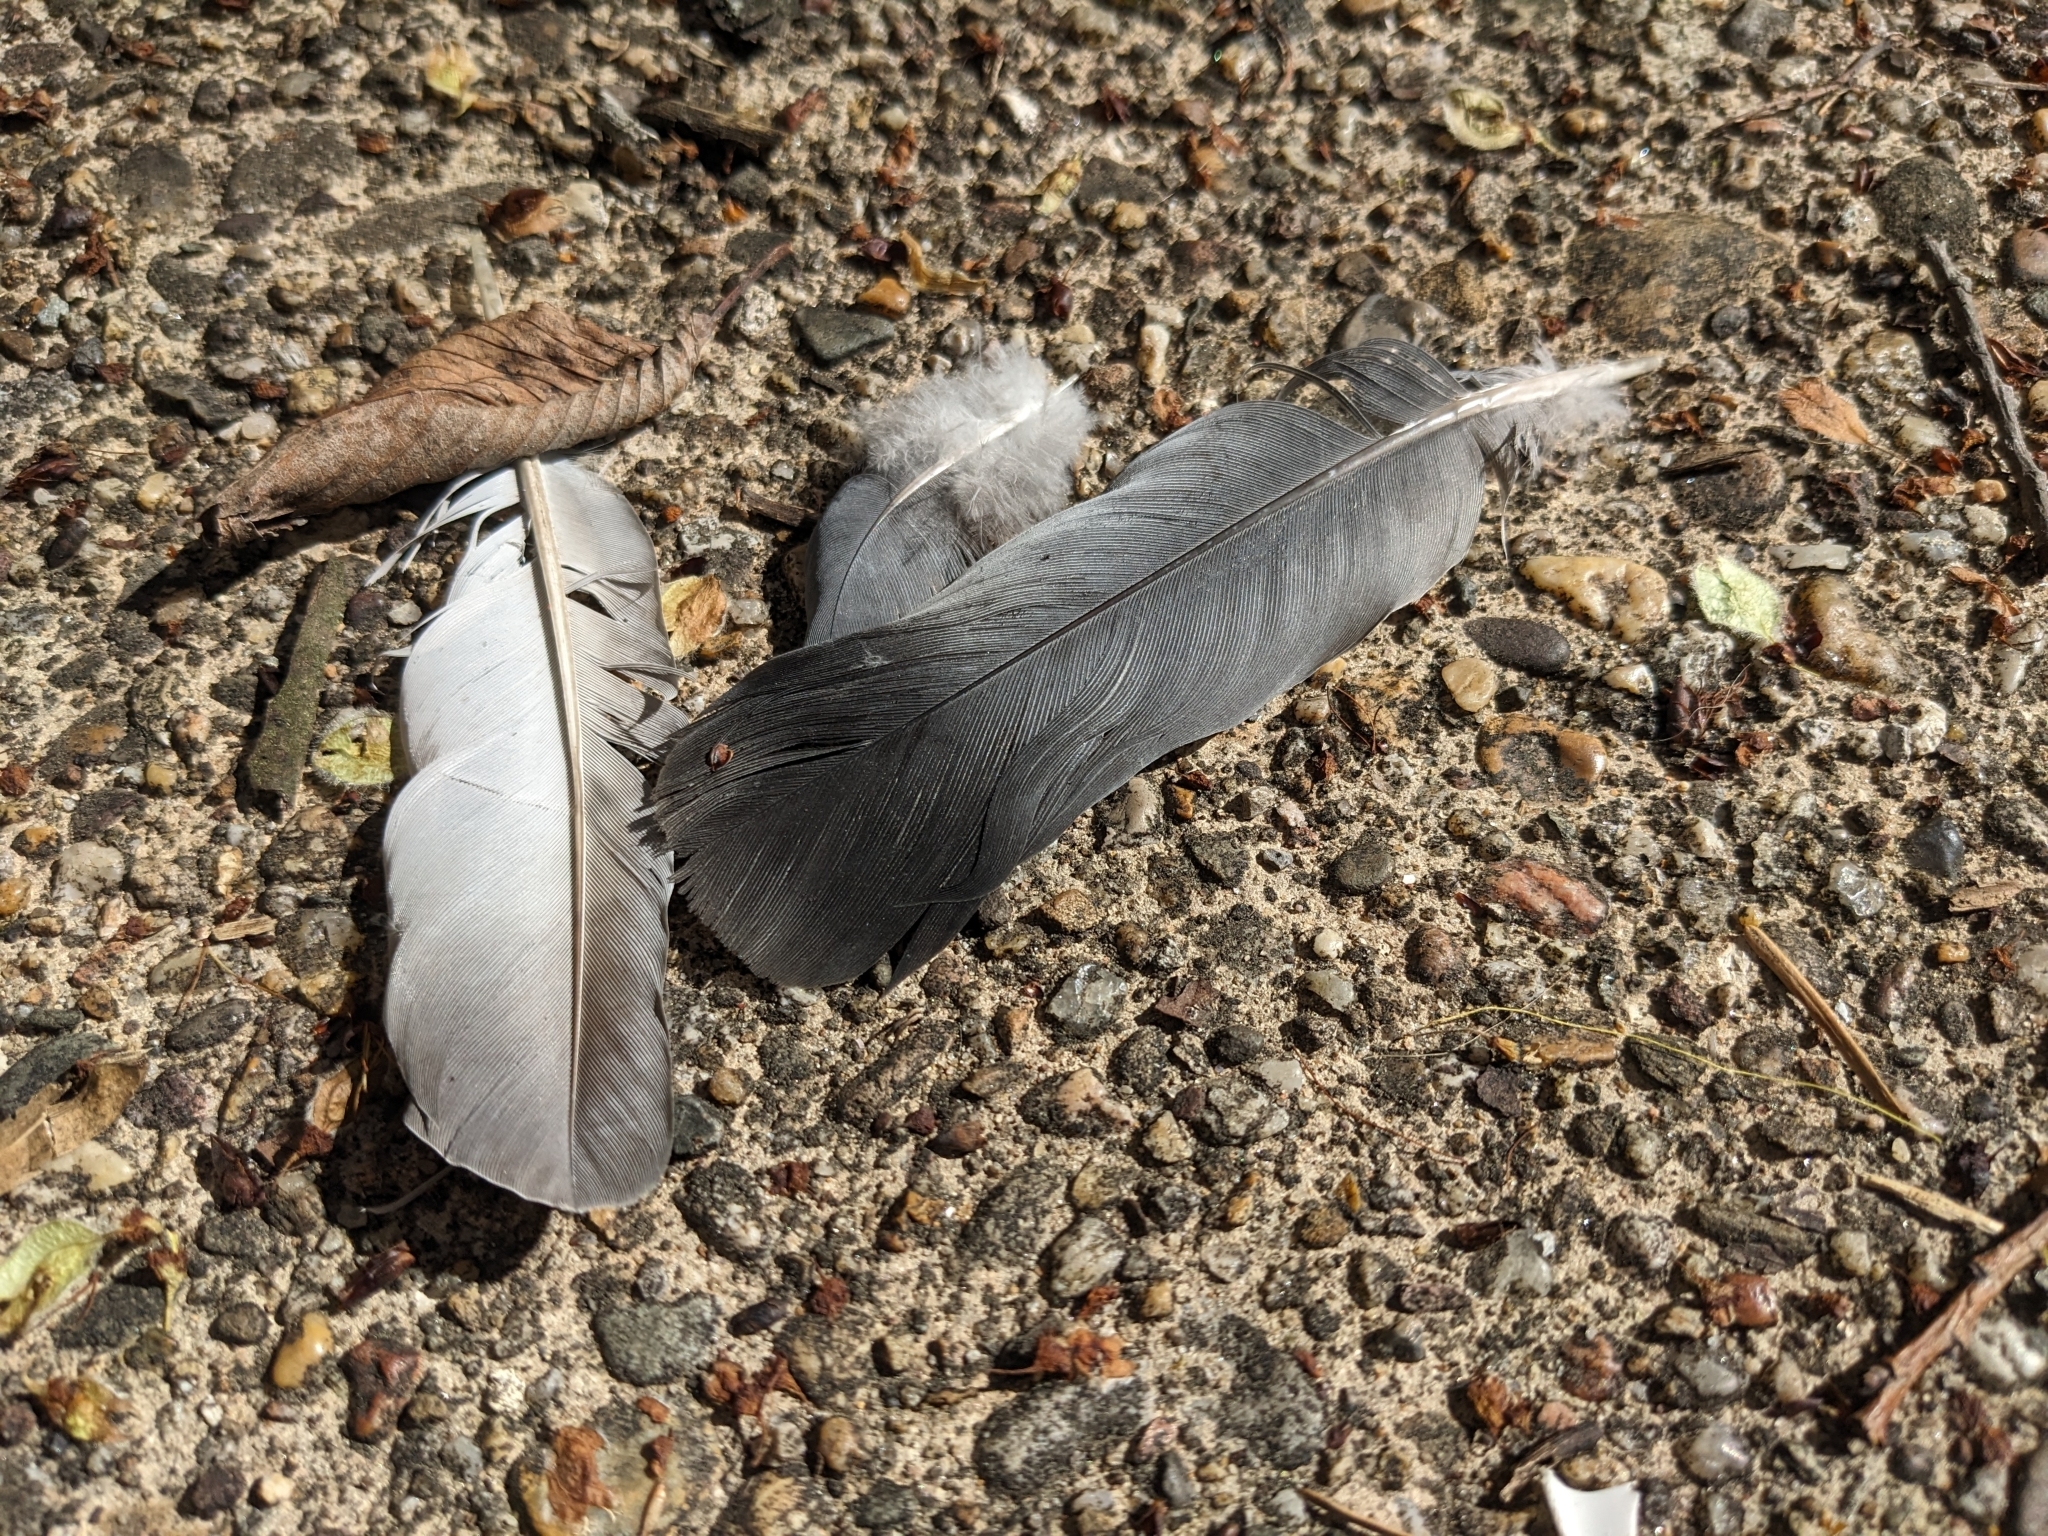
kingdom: Animalia
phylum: Chordata
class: Aves
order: Columbiformes
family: Columbidae
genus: Columba
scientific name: Columba livia
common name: Rock pigeon
